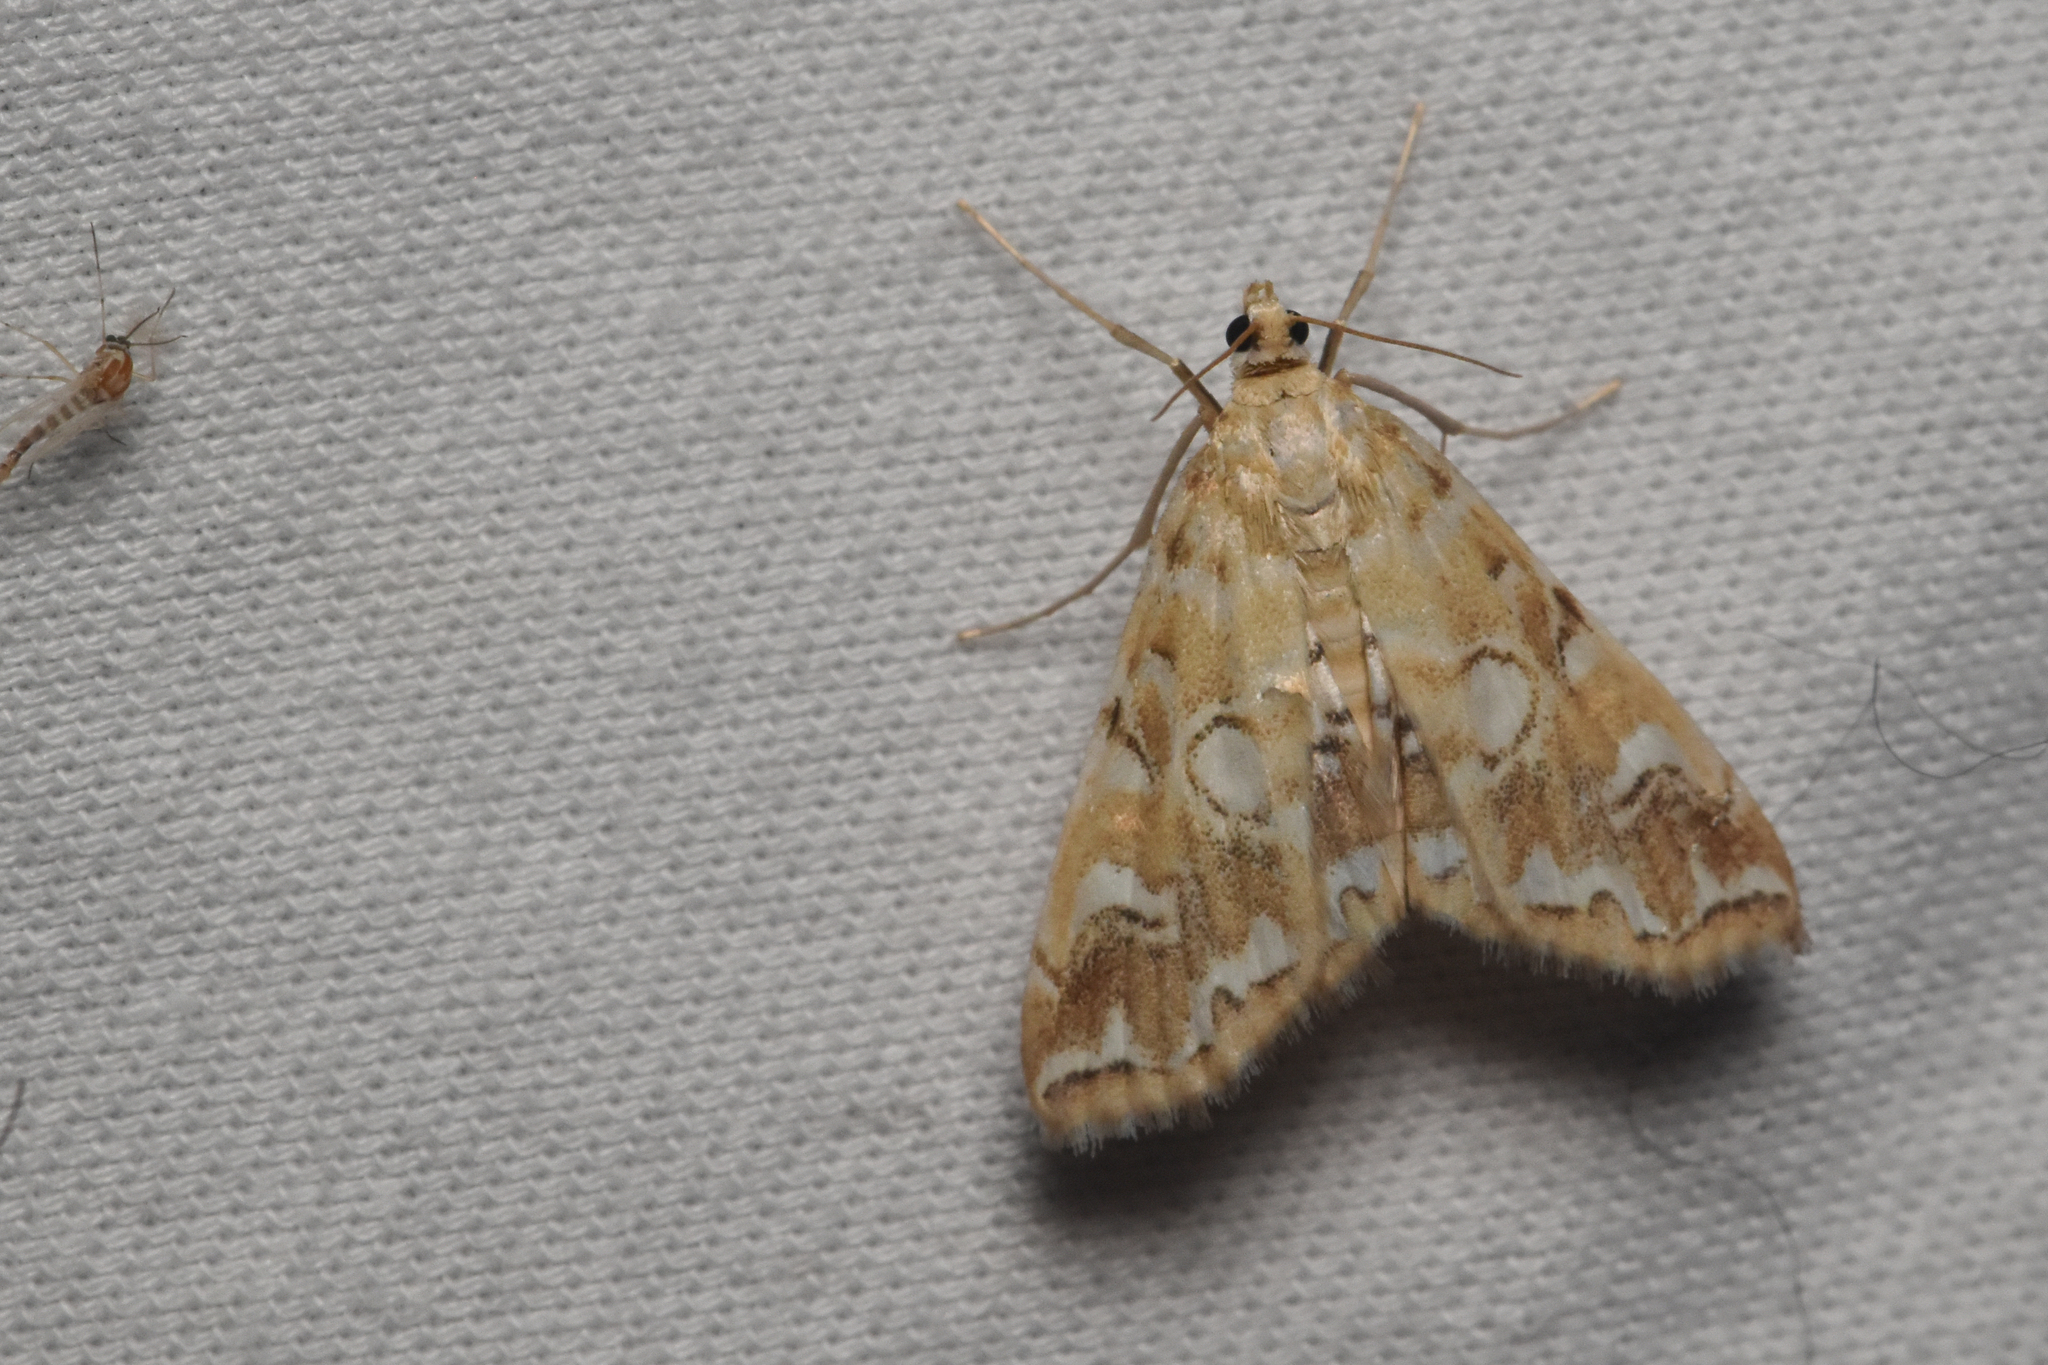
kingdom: Animalia
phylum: Arthropoda
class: Insecta
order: Lepidoptera
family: Crambidae
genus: Elophila
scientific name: Elophila icciusalis
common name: Pondside pyralid moth
